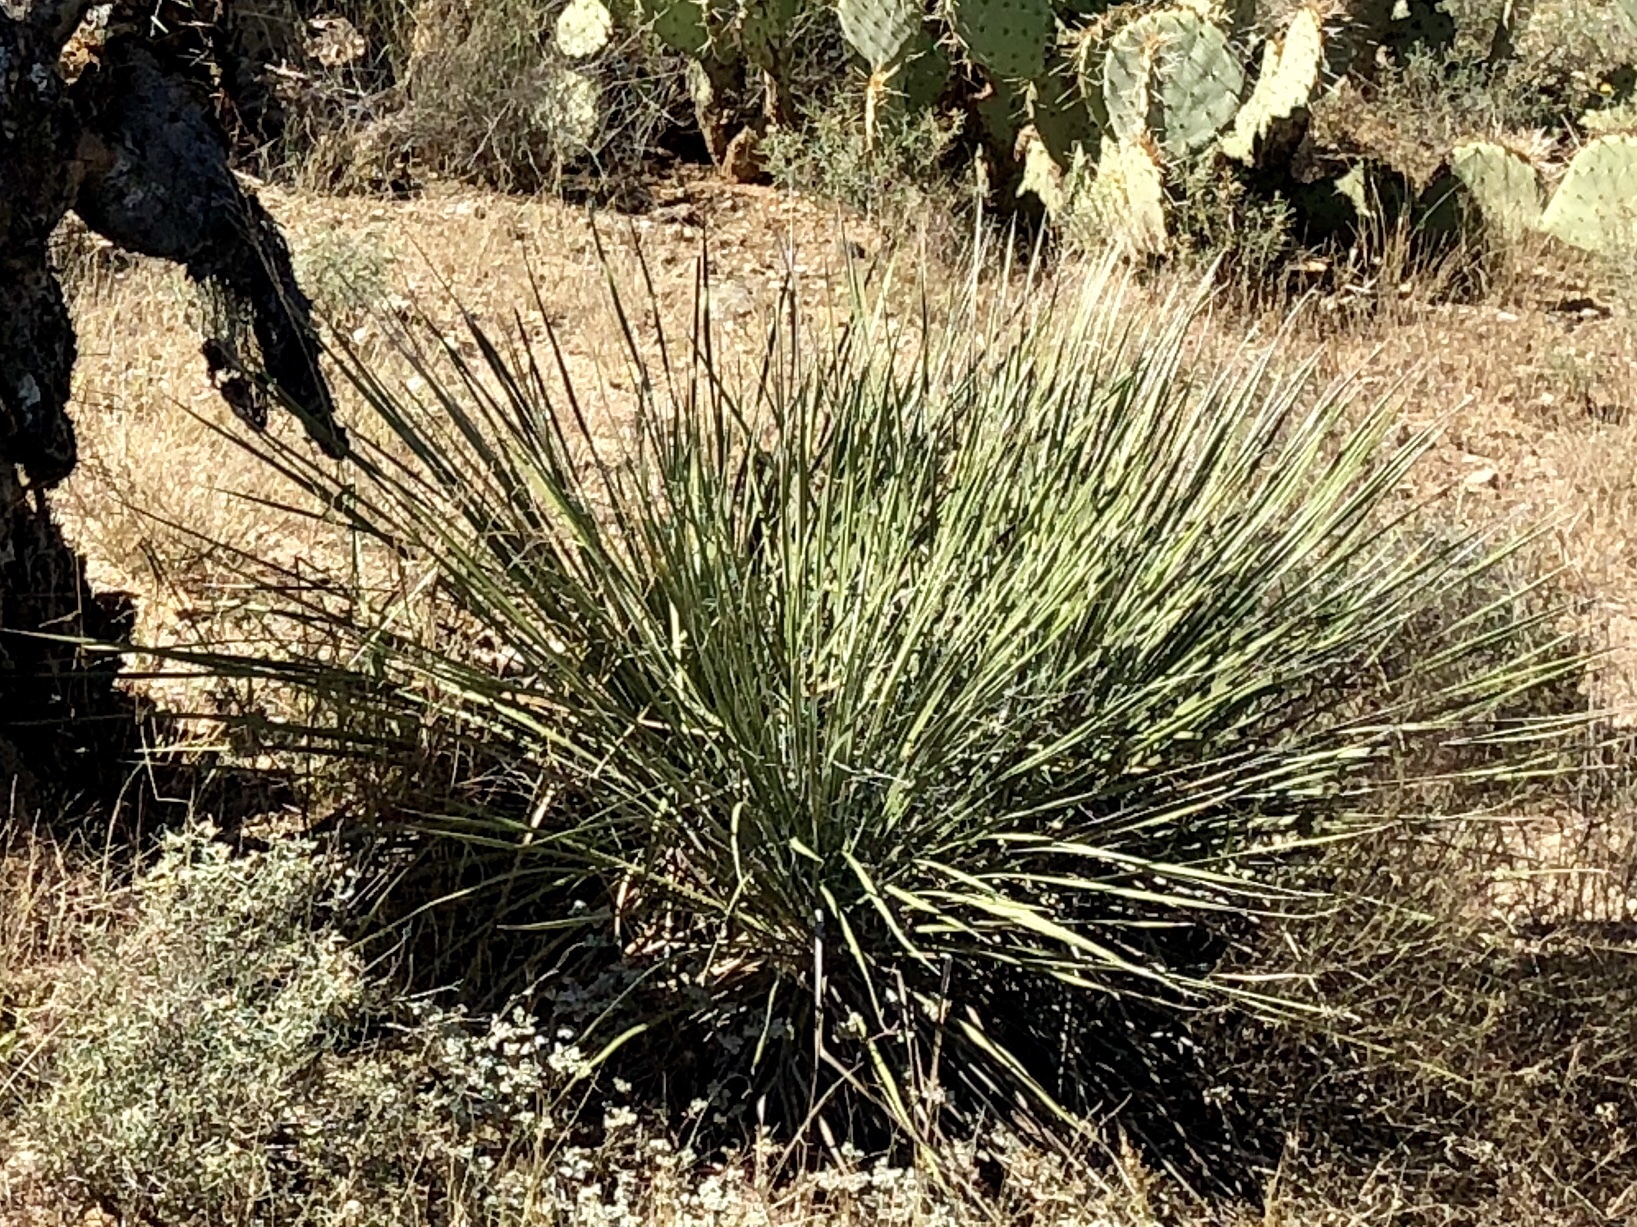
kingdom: Plantae
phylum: Tracheophyta
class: Liliopsida
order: Asparagales
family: Asparagaceae
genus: Yucca
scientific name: Yucca elata
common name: Palmella
